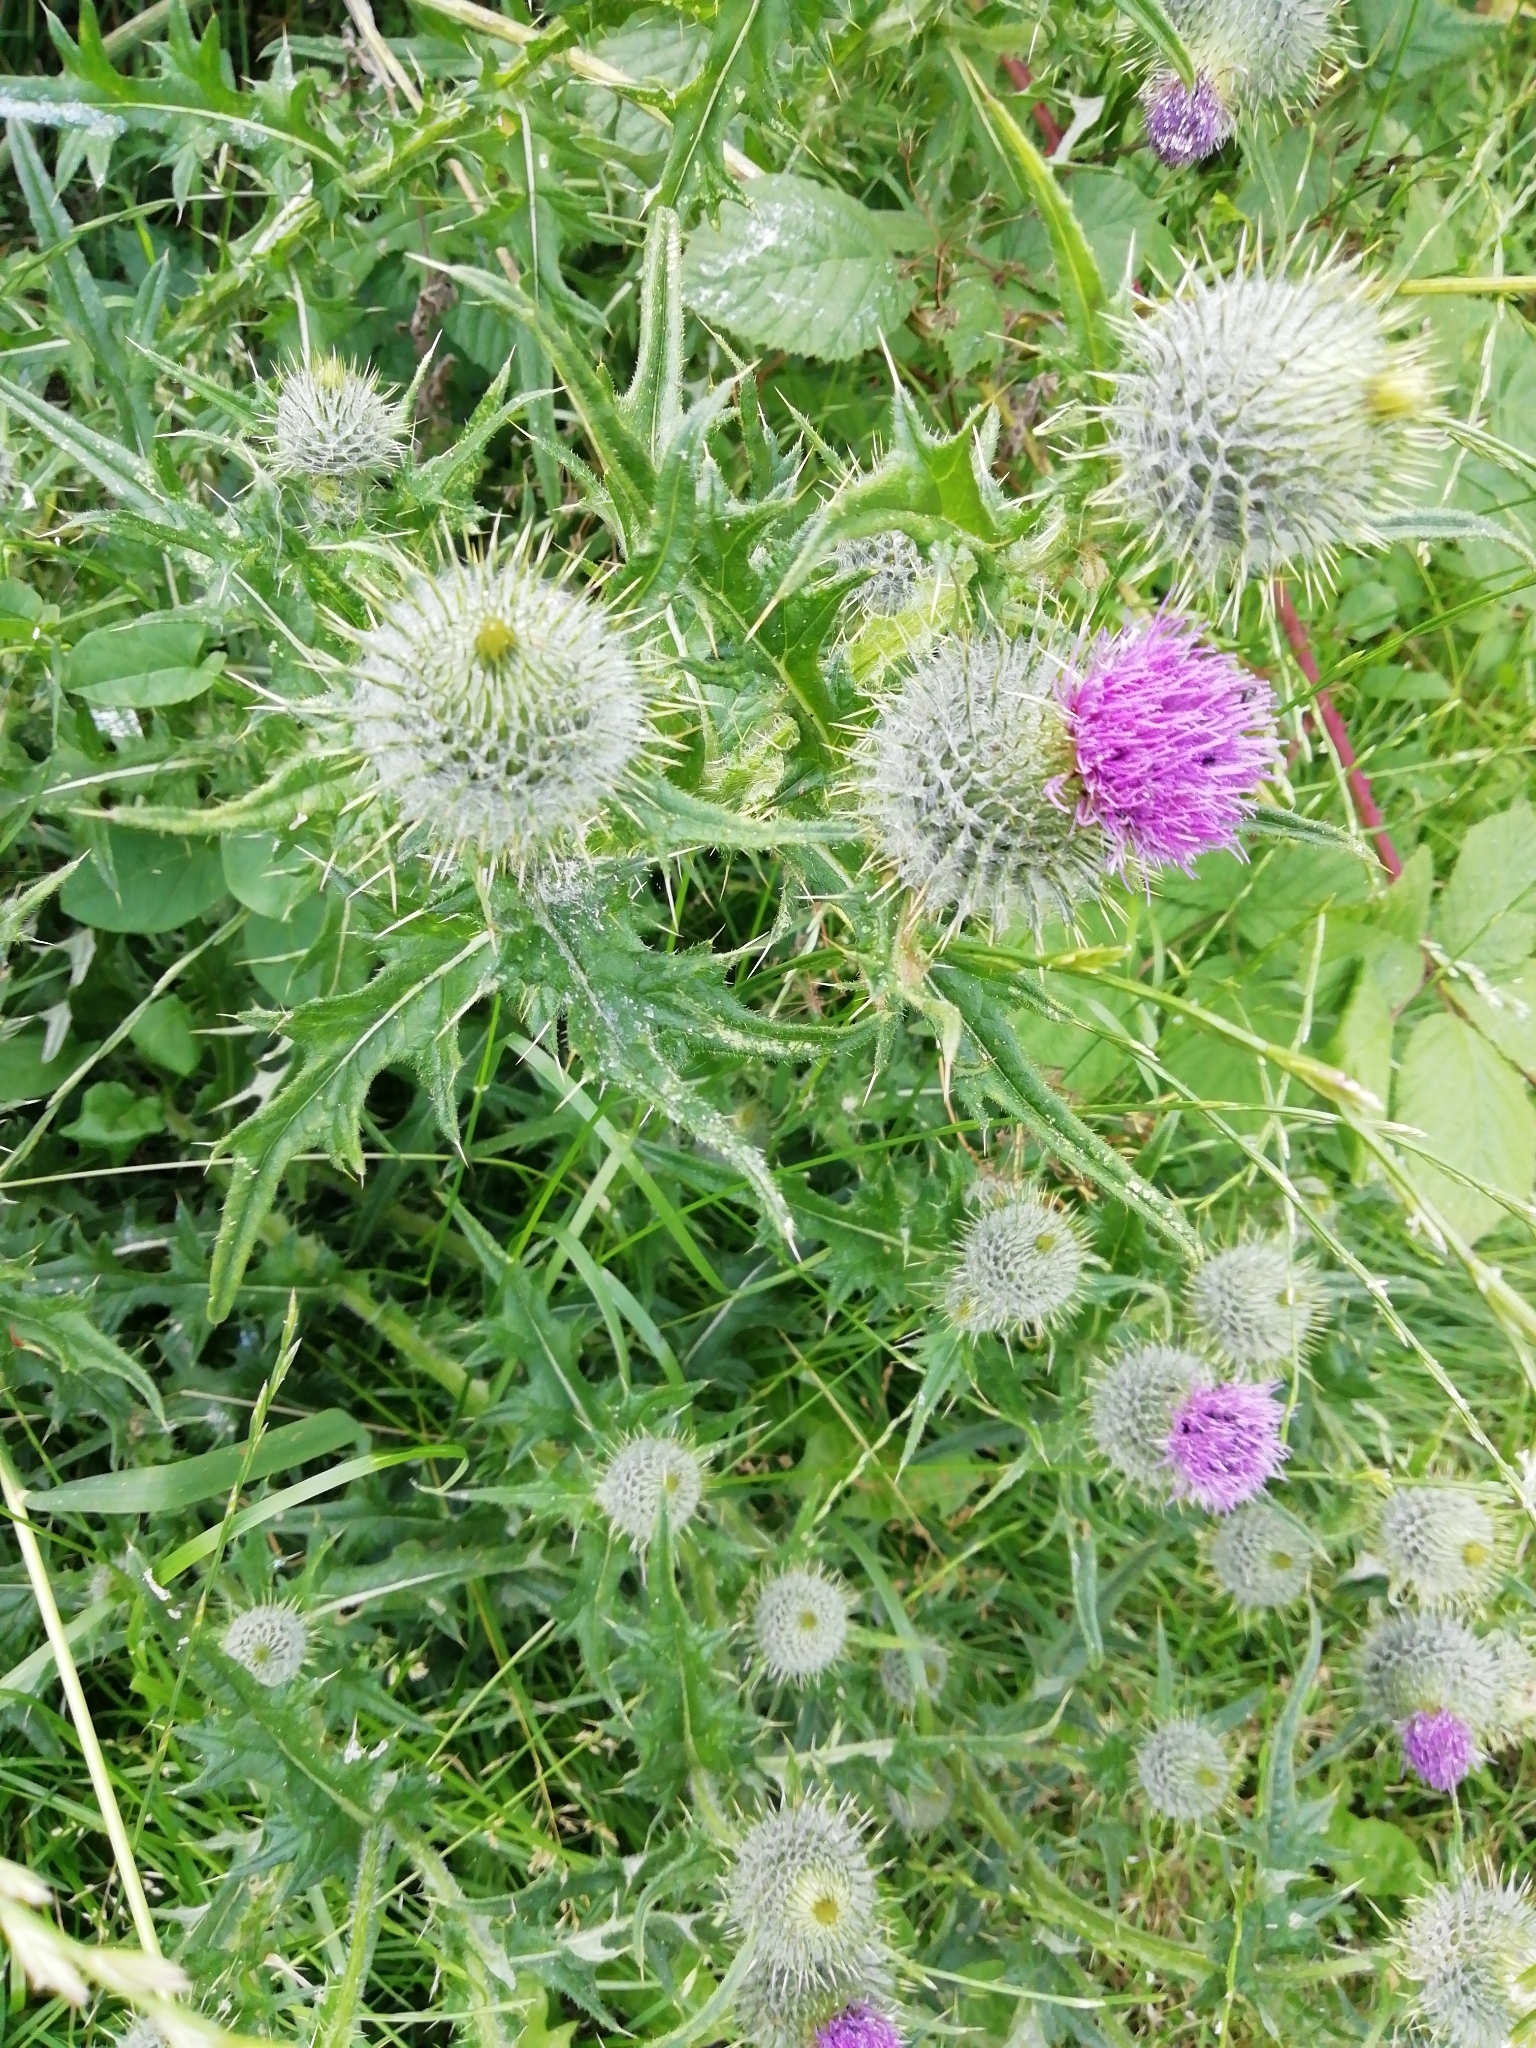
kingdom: Plantae
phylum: Tracheophyta
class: Magnoliopsida
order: Asterales
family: Asteraceae
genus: Cirsium
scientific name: Cirsium vulgare
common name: Bull thistle
